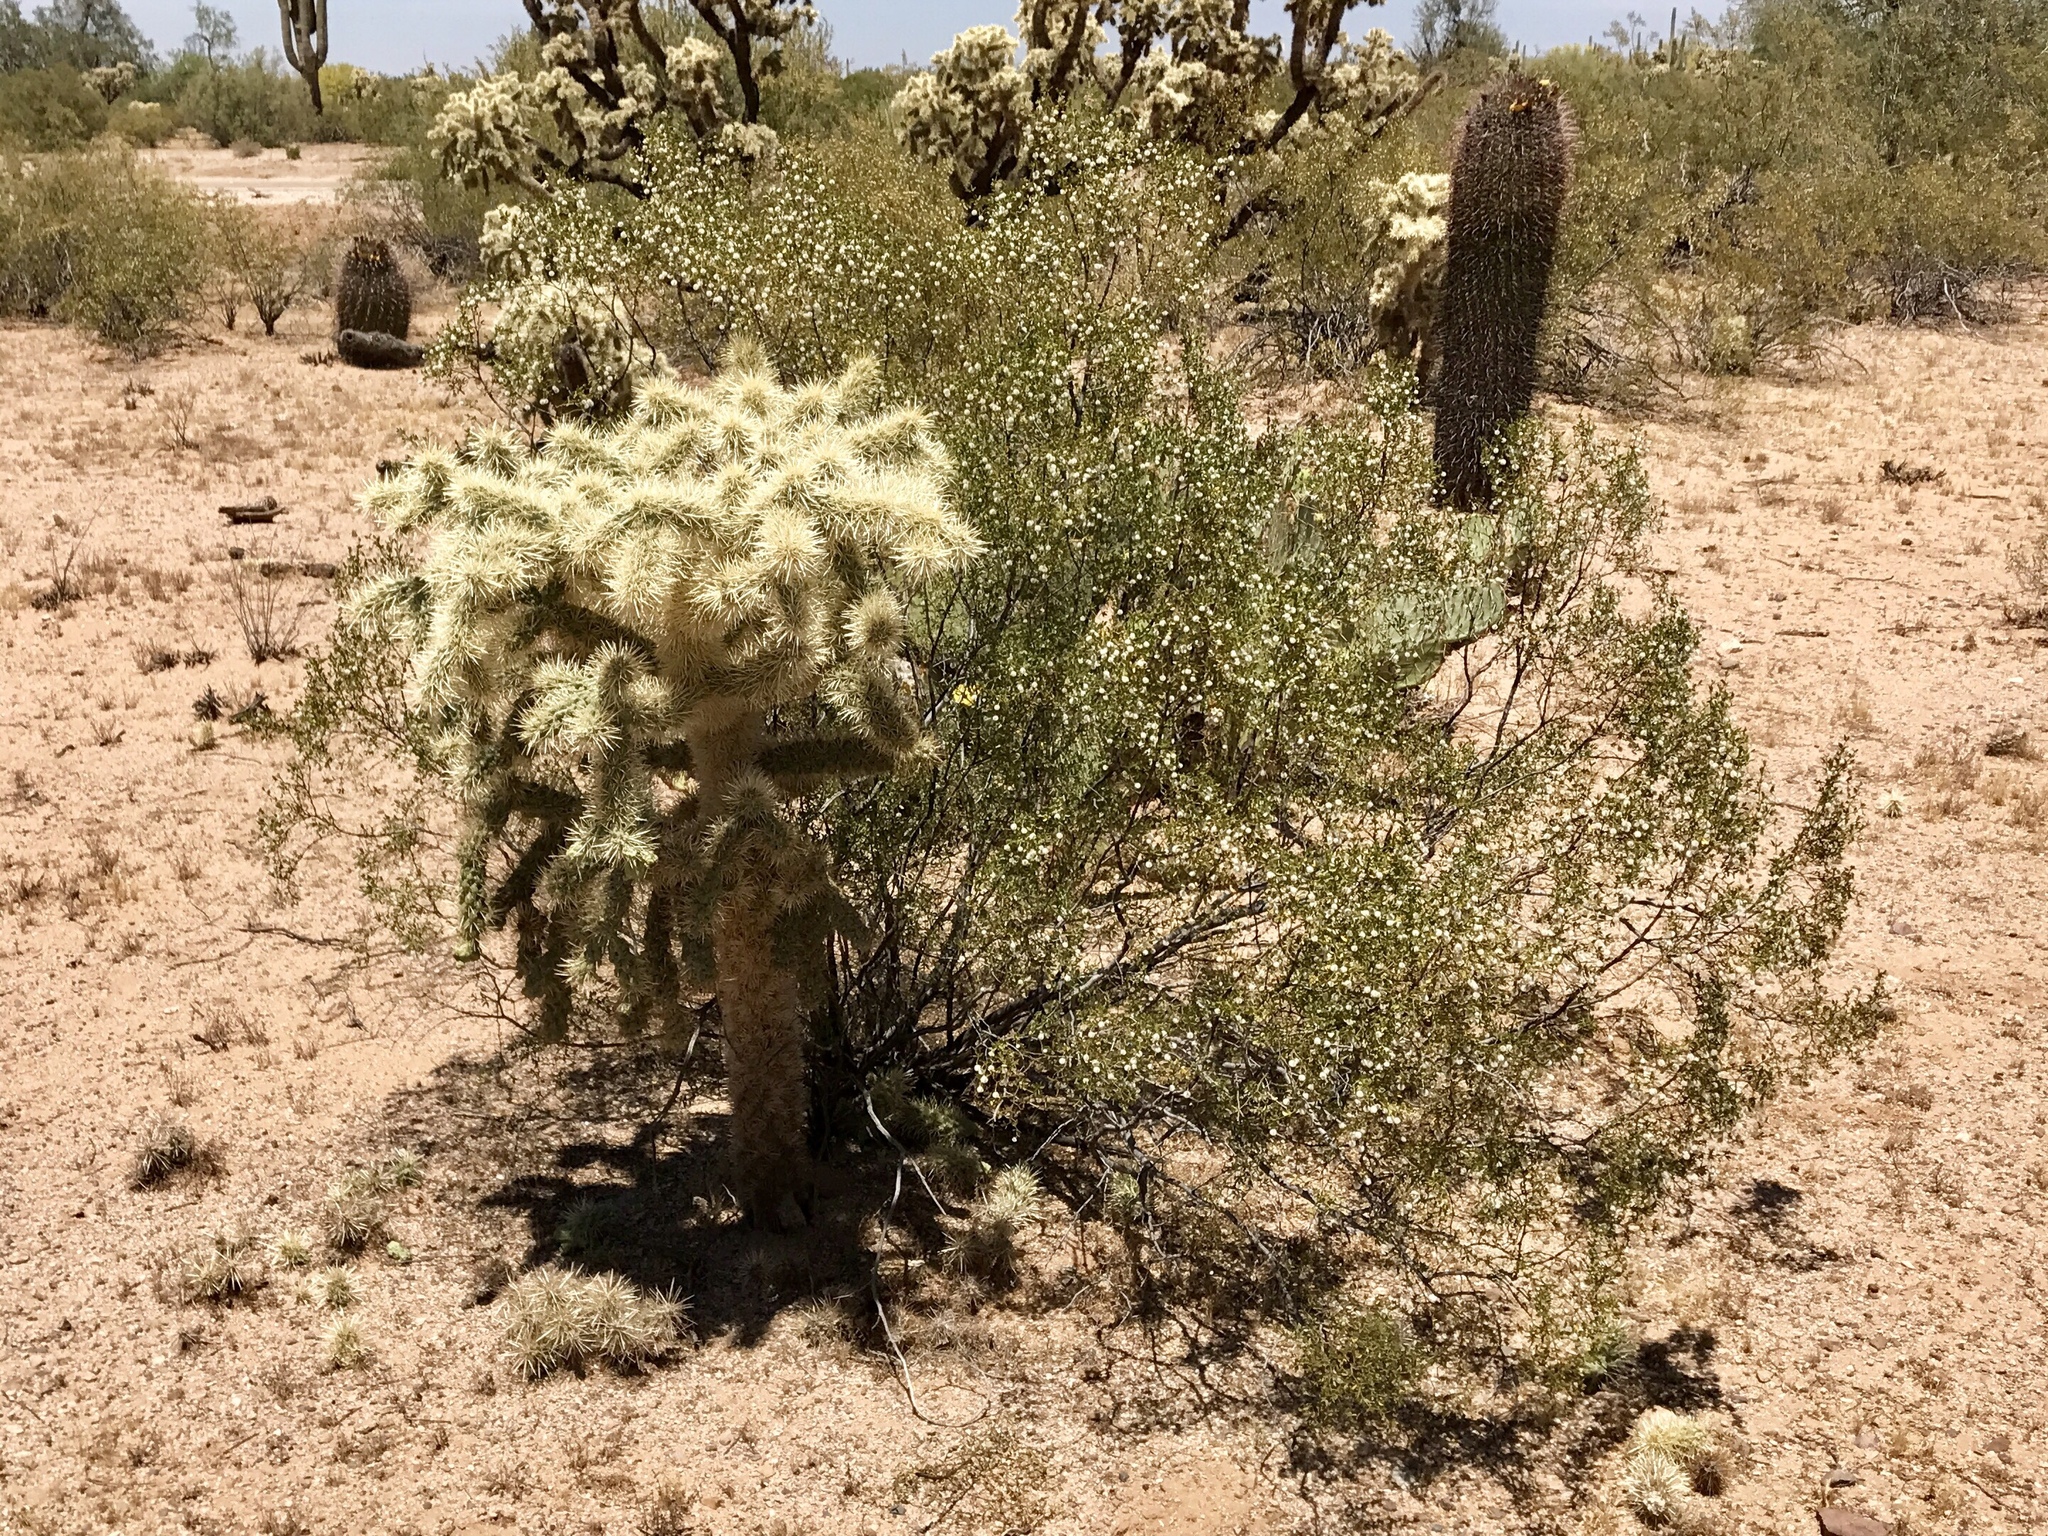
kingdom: Plantae
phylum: Tracheophyta
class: Magnoliopsida
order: Caryophyllales
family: Cactaceae
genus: Cylindropuntia
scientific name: Cylindropuntia fulgida
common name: Jumping cholla
